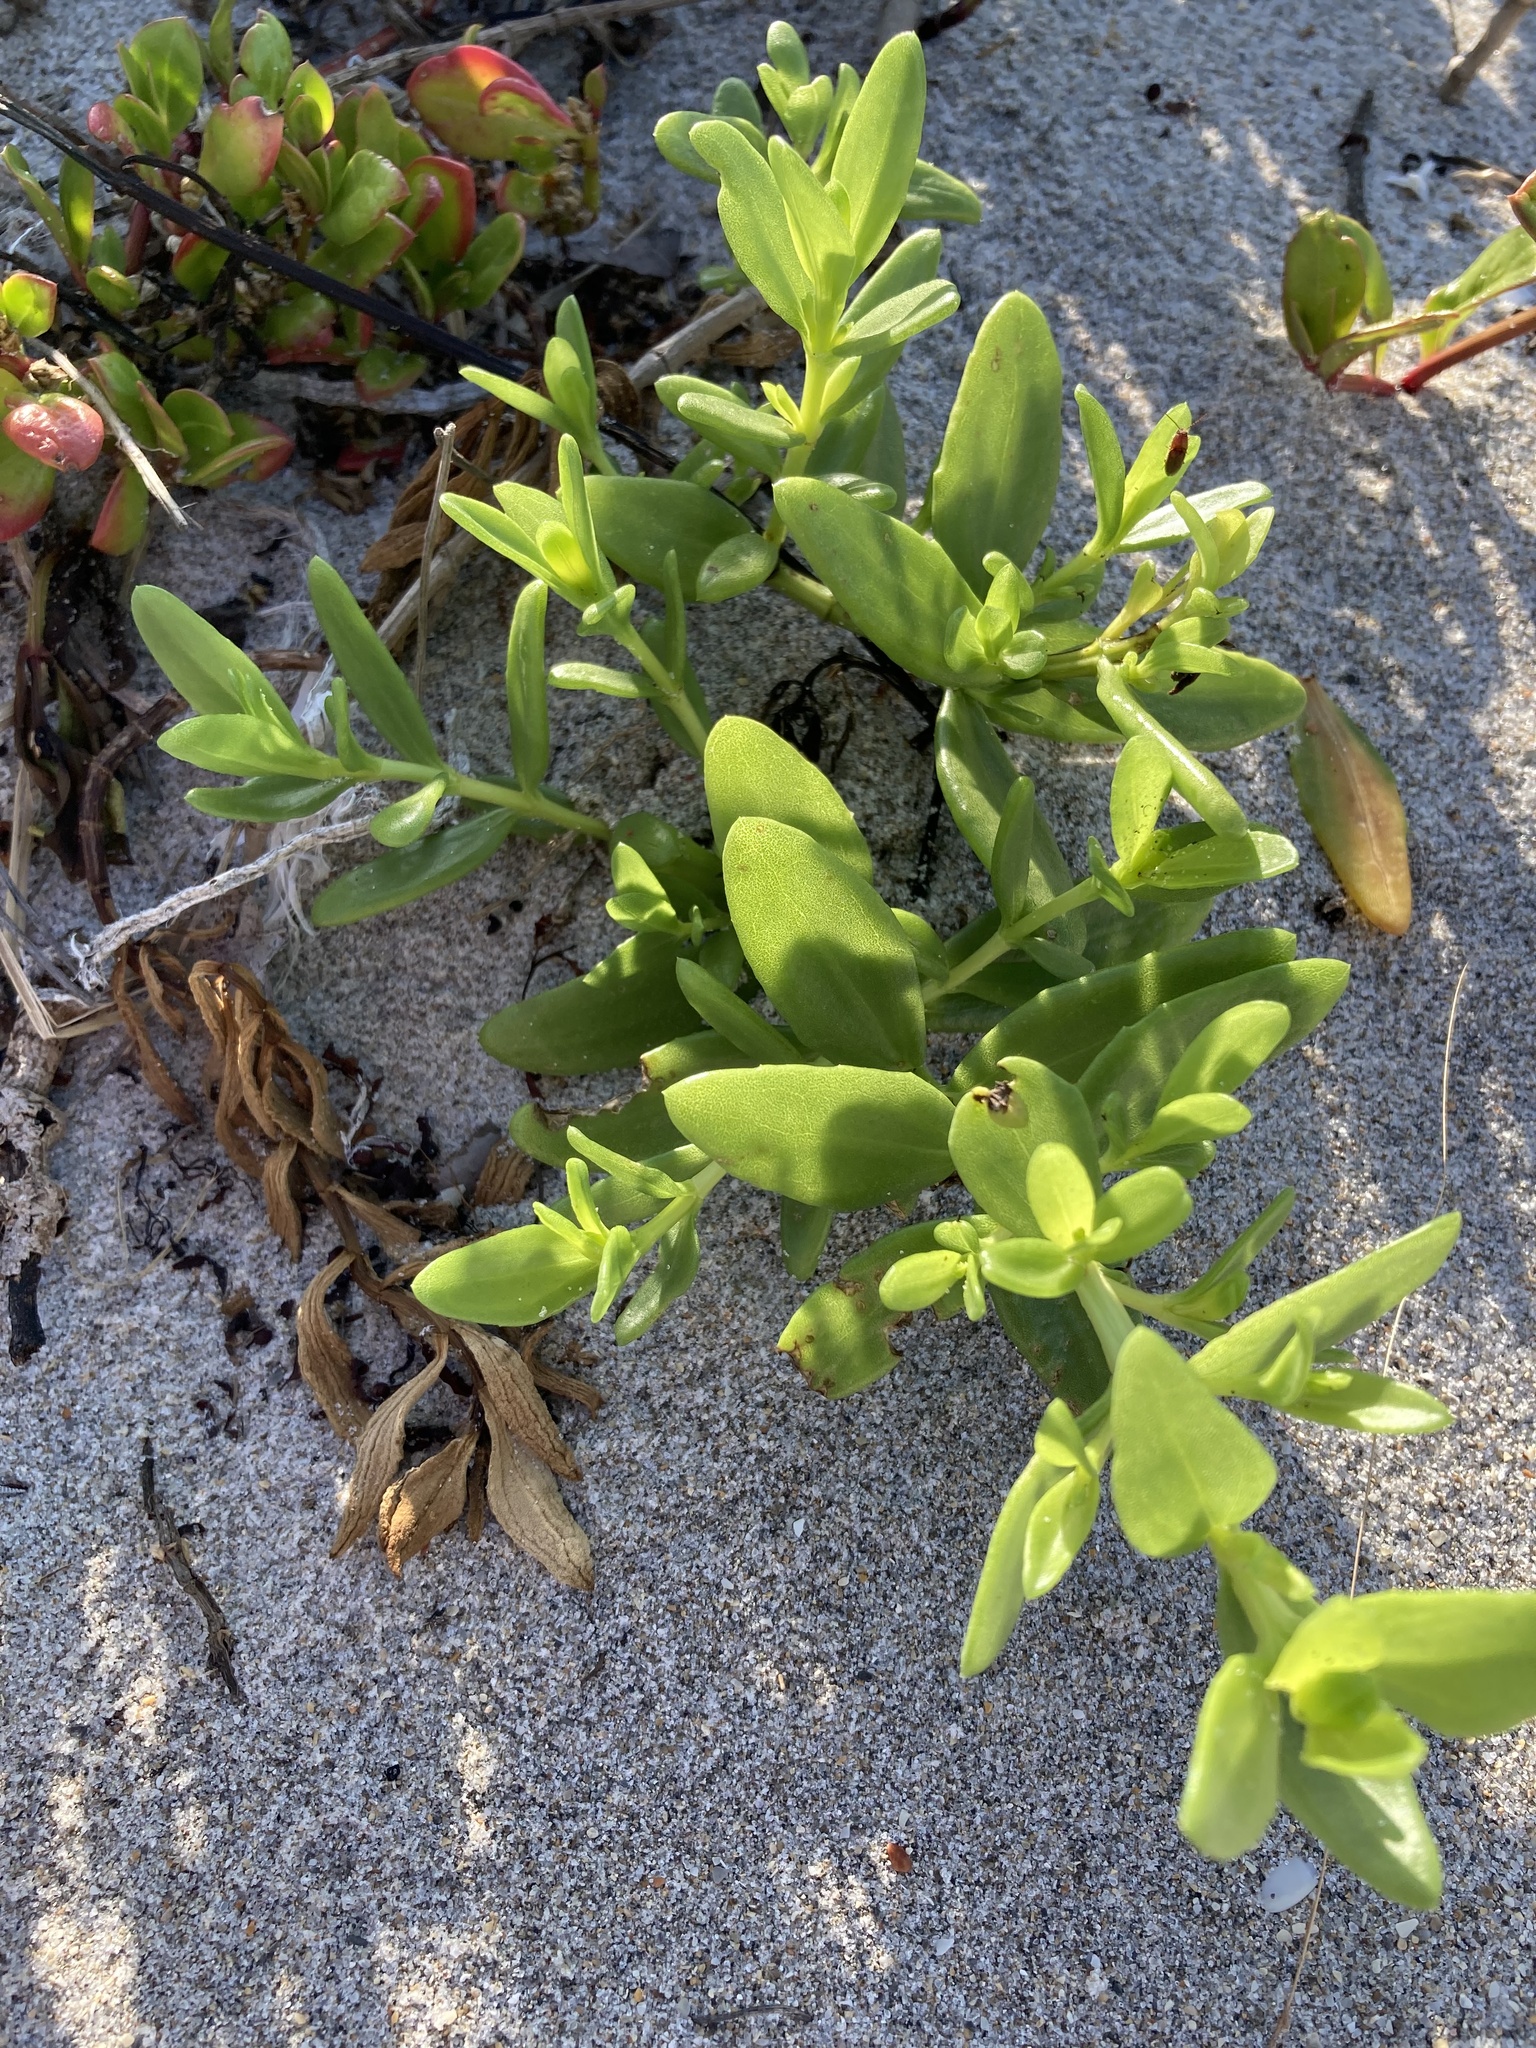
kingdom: Plantae
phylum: Tracheophyta
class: Magnoliopsida
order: Asterales
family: Asteraceae
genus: Iva
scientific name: Iva imbricata
